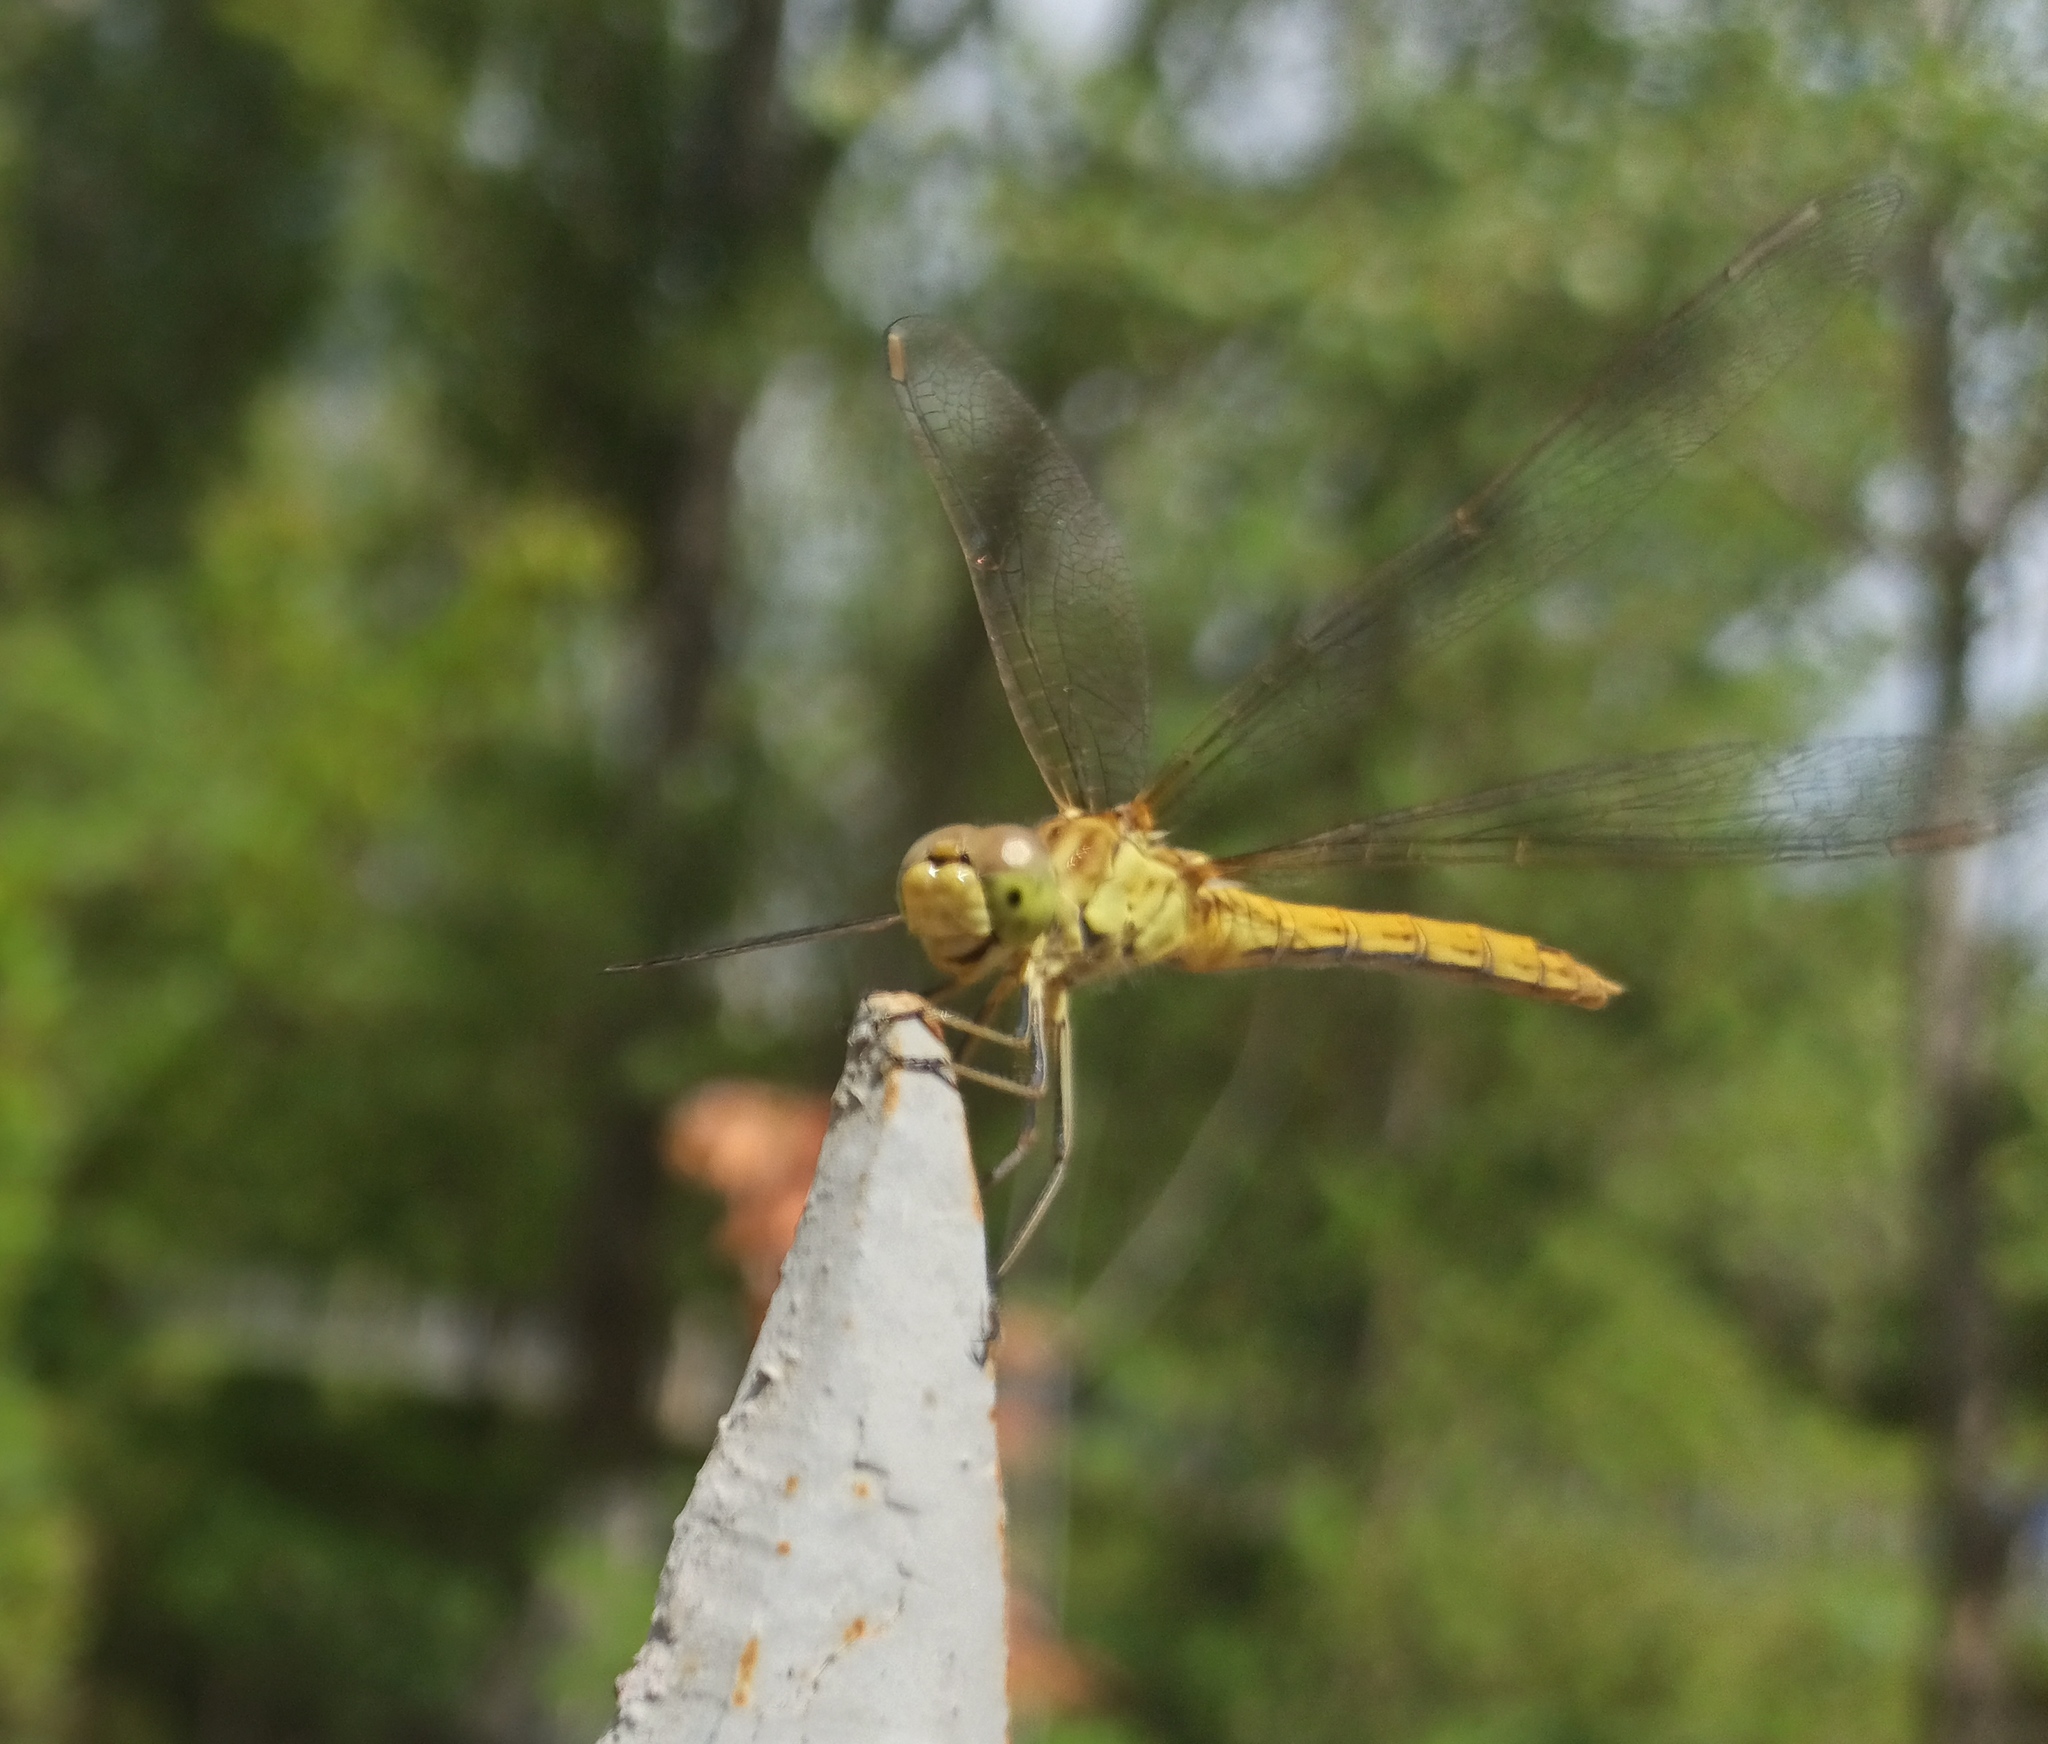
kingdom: Animalia
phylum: Arthropoda
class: Insecta
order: Odonata
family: Libellulidae
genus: Sympetrum
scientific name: Sympetrum meridionale
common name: Southern darter
